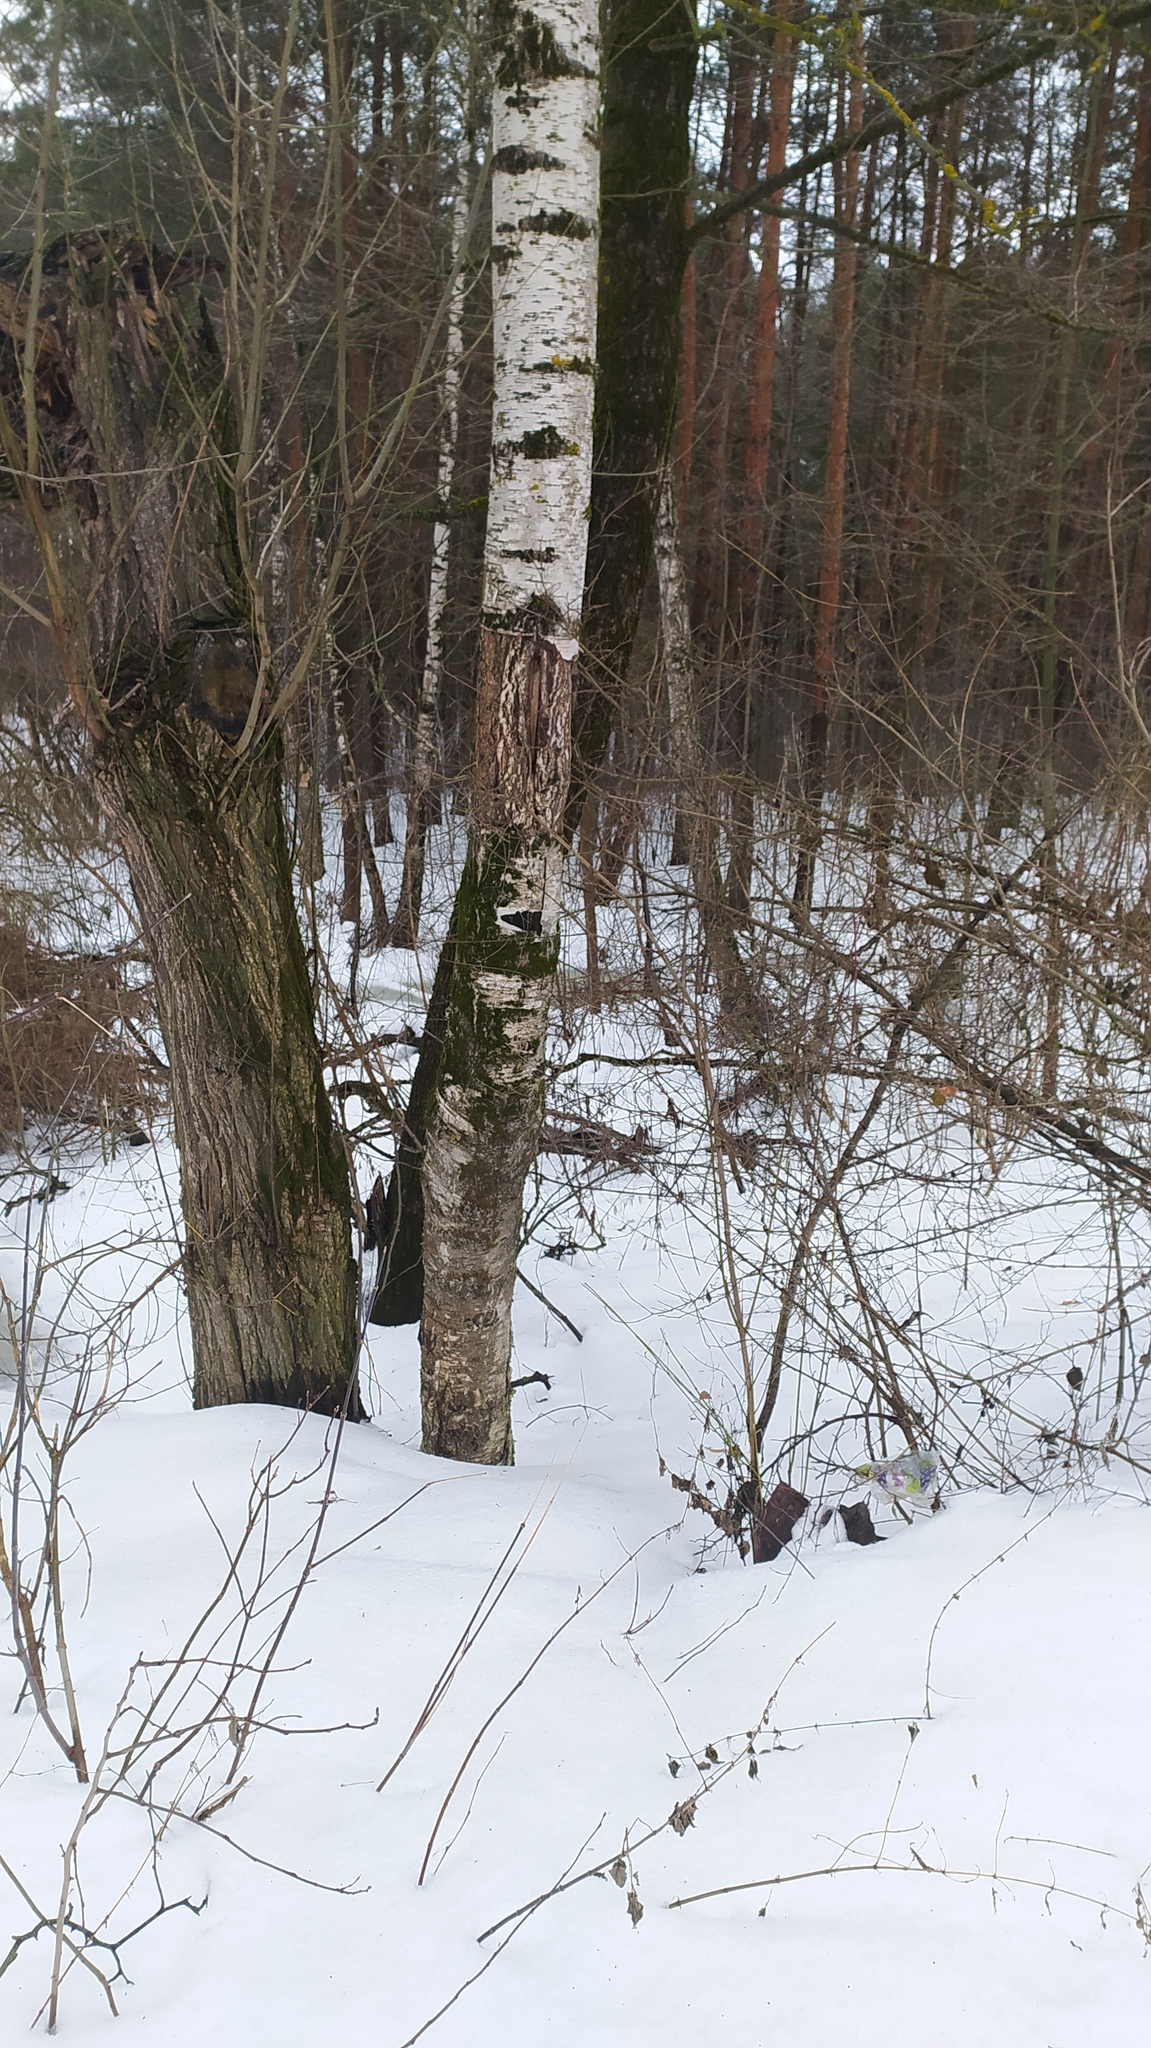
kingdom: Plantae
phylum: Tracheophyta
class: Magnoliopsida
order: Fagales
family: Betulaceae
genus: Betula
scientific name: Betula pendula
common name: Silver birch
